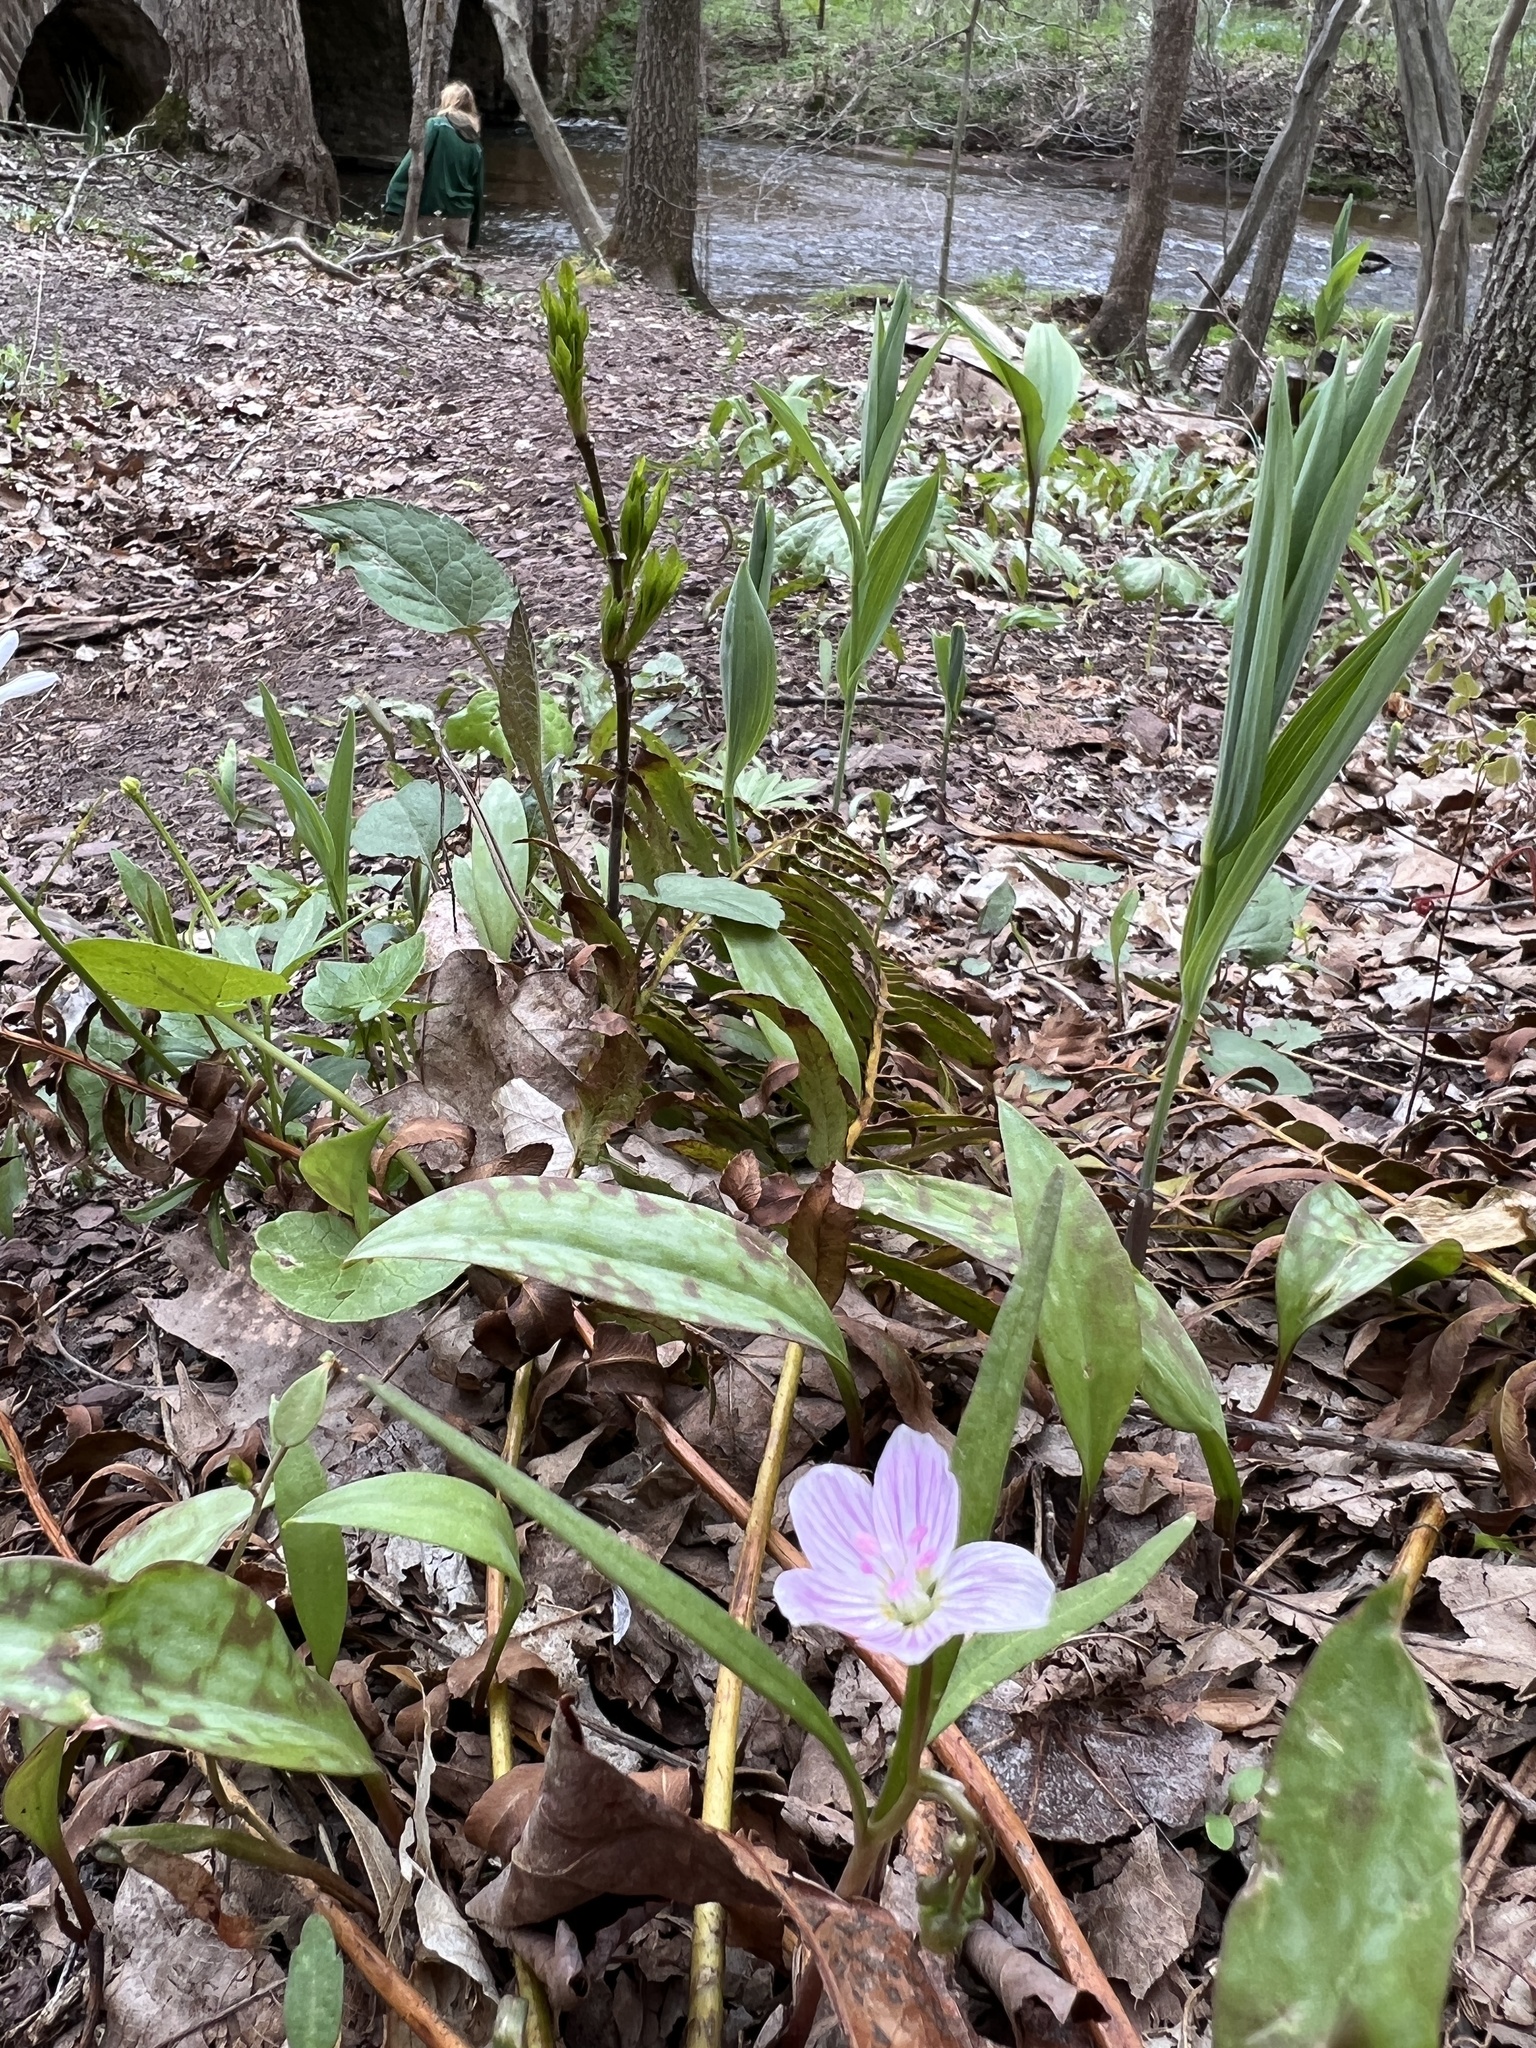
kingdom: Plantae
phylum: Tracheophyta
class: Magnoliopsida
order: Caryophyllales
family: Montiaceae
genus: Claytonia
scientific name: Claytonia virginica
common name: Virginia springbeauty
